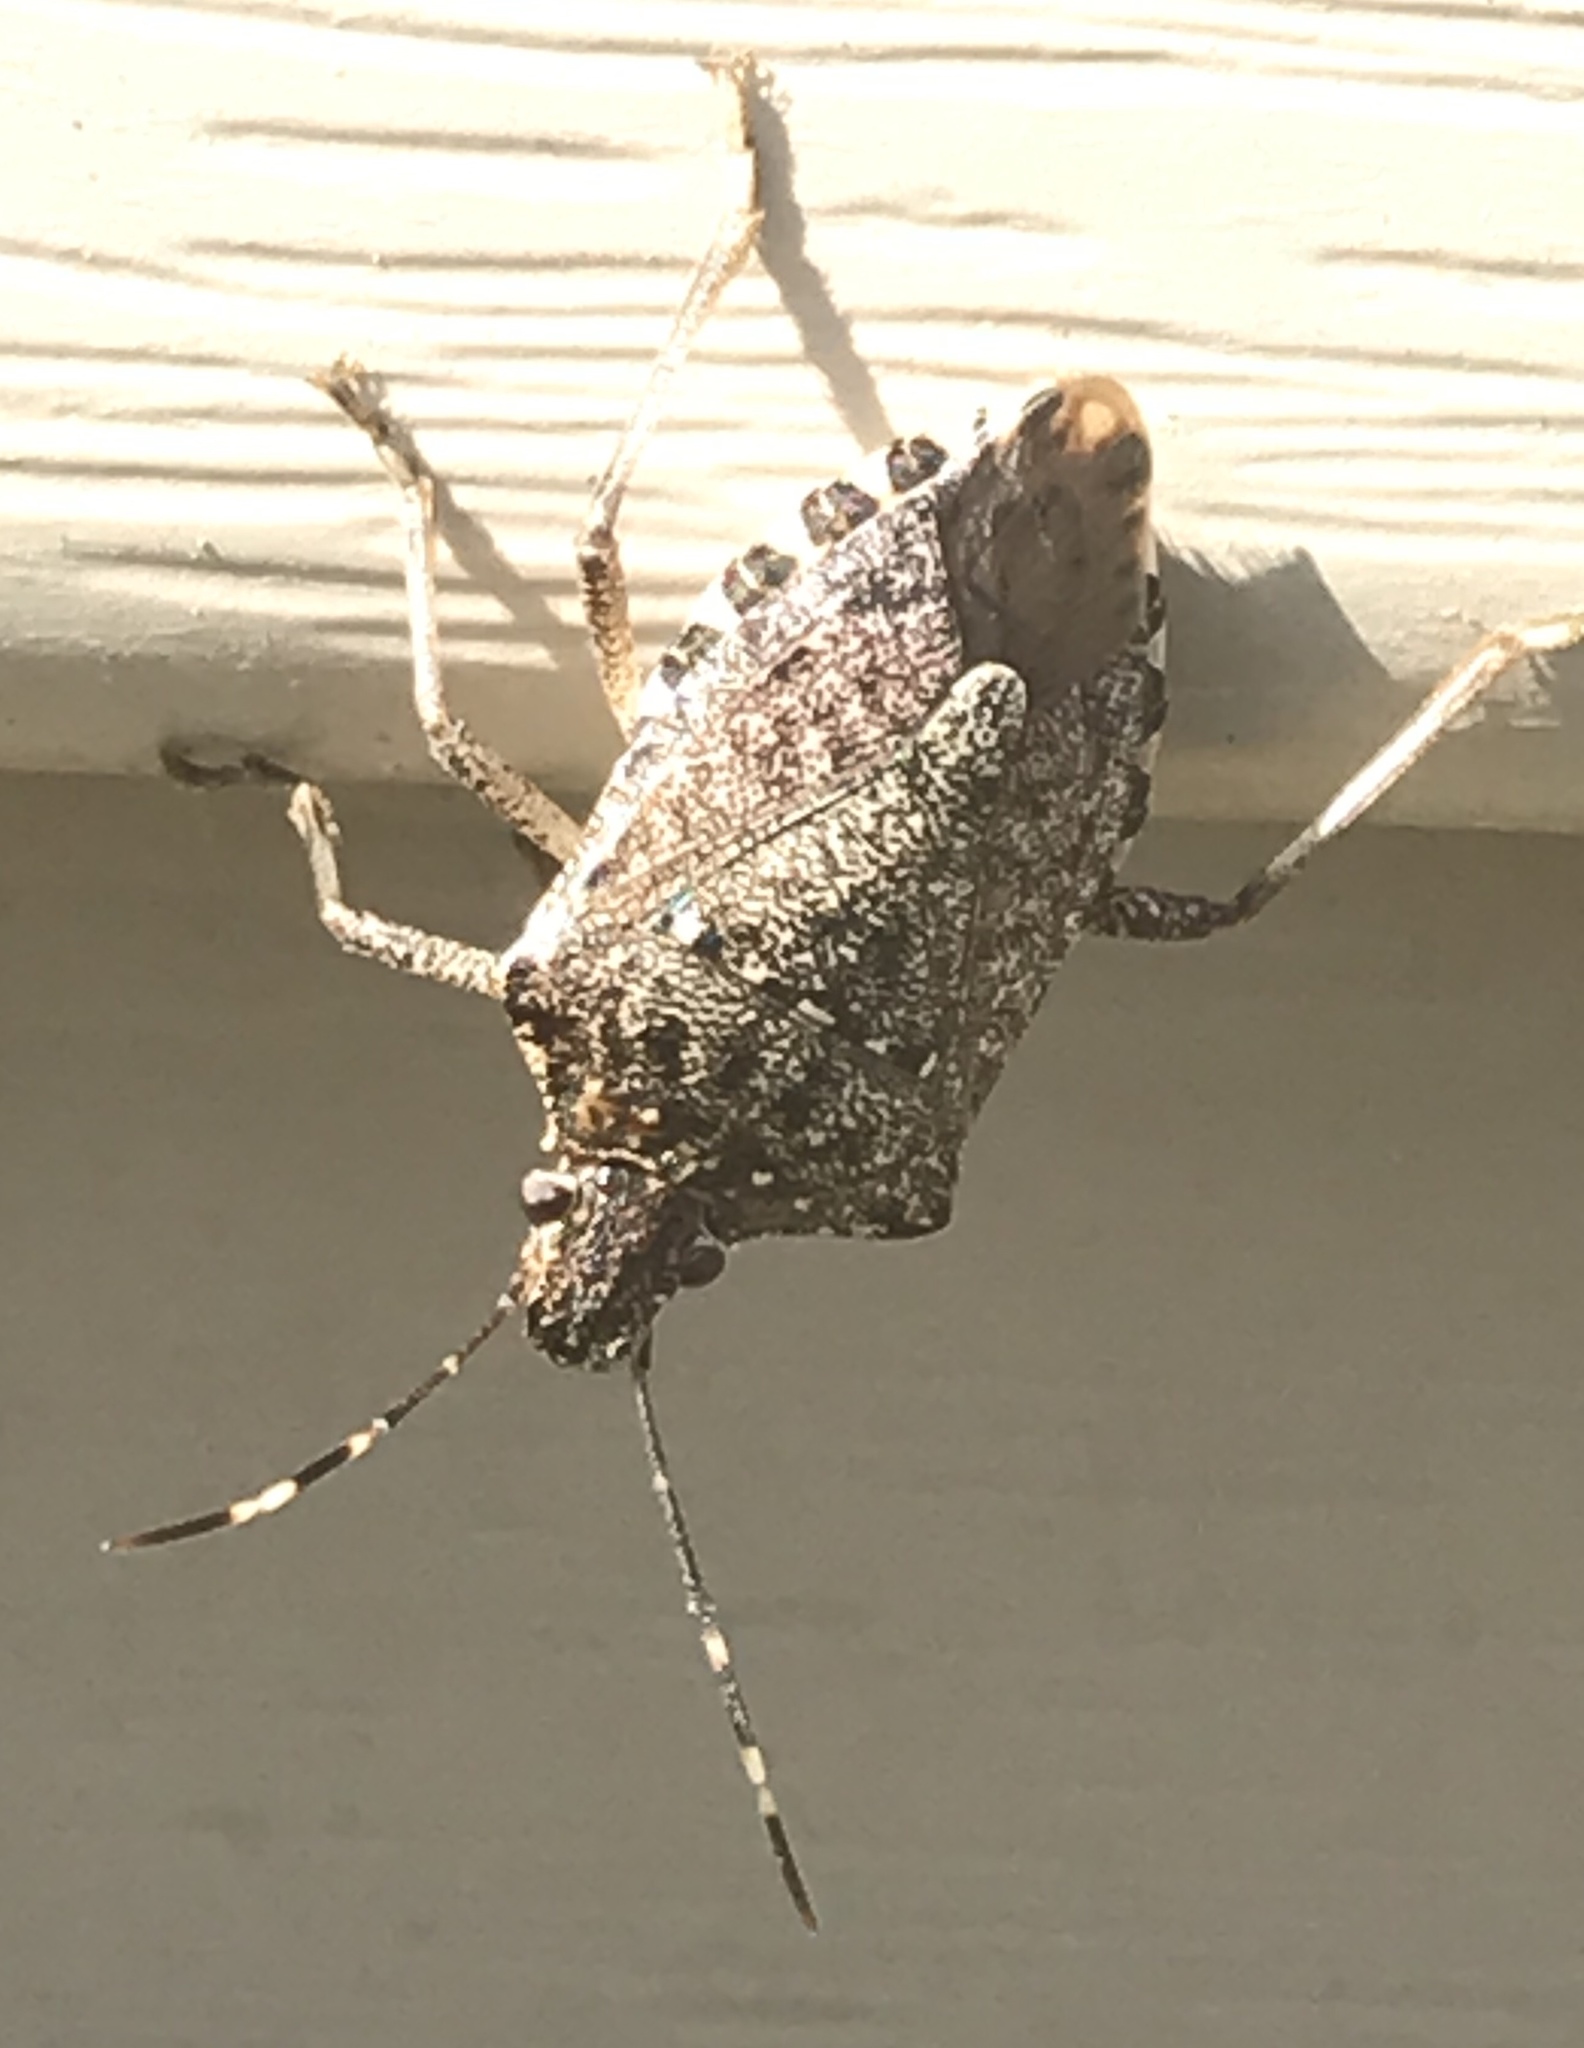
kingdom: Animalia
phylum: Arthropoda
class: Insecta
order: Hemiptera
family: Pentatomidae
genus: Halyomorpha
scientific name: Halyomorpha halys
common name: Brown marmorated stink bug
